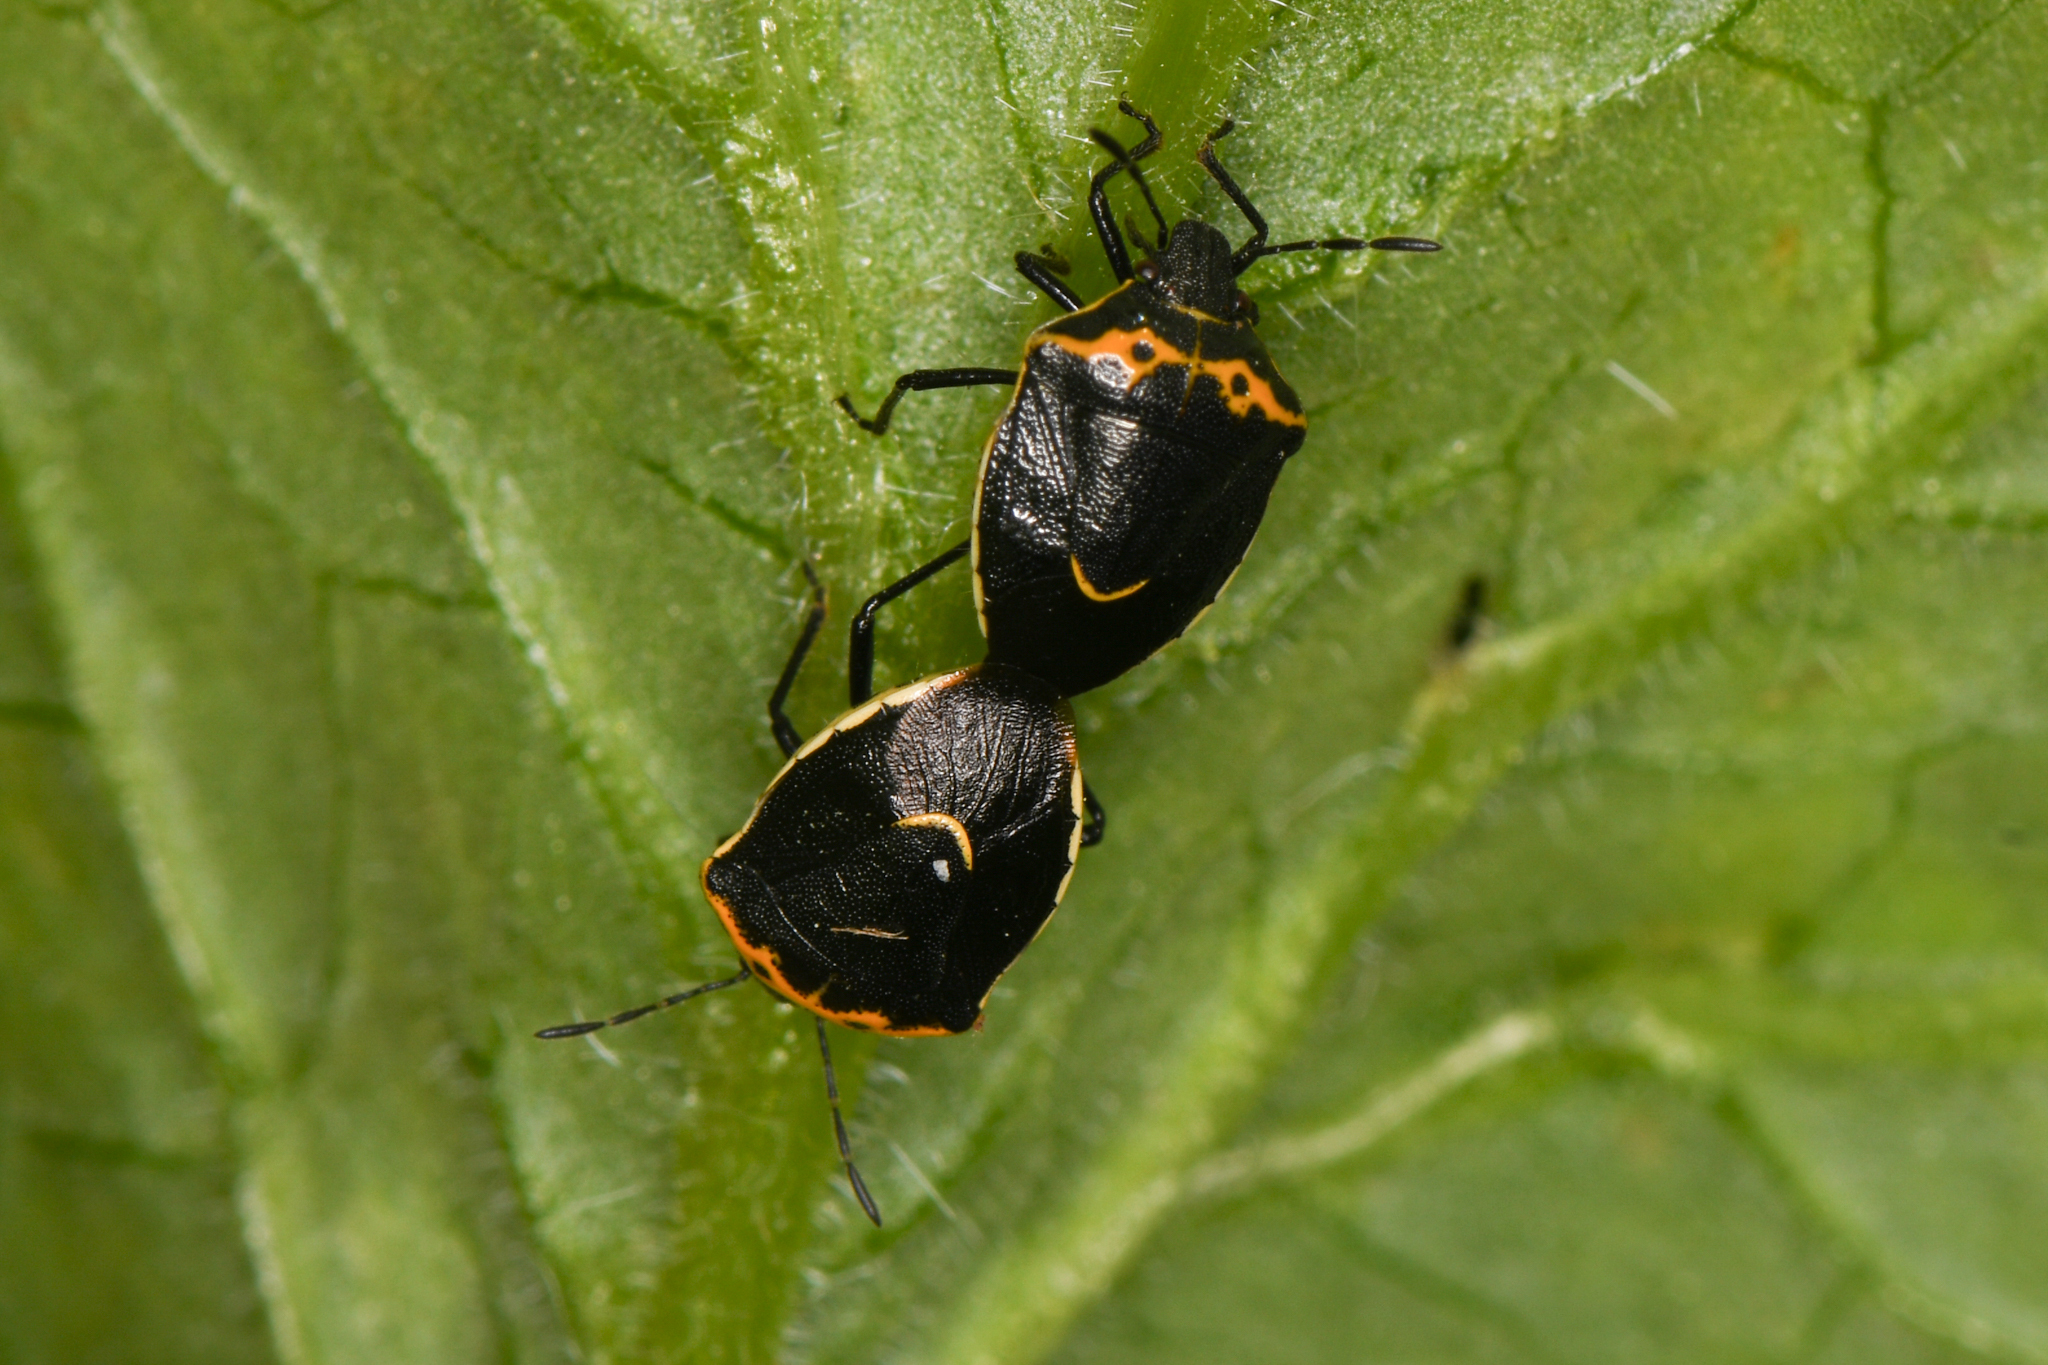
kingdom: Animalia
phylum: Arthropoda
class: Insecta
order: Hemiptera
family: Pentatomidae
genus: Cosmopepla
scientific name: Cosmopepla conspicillaris
